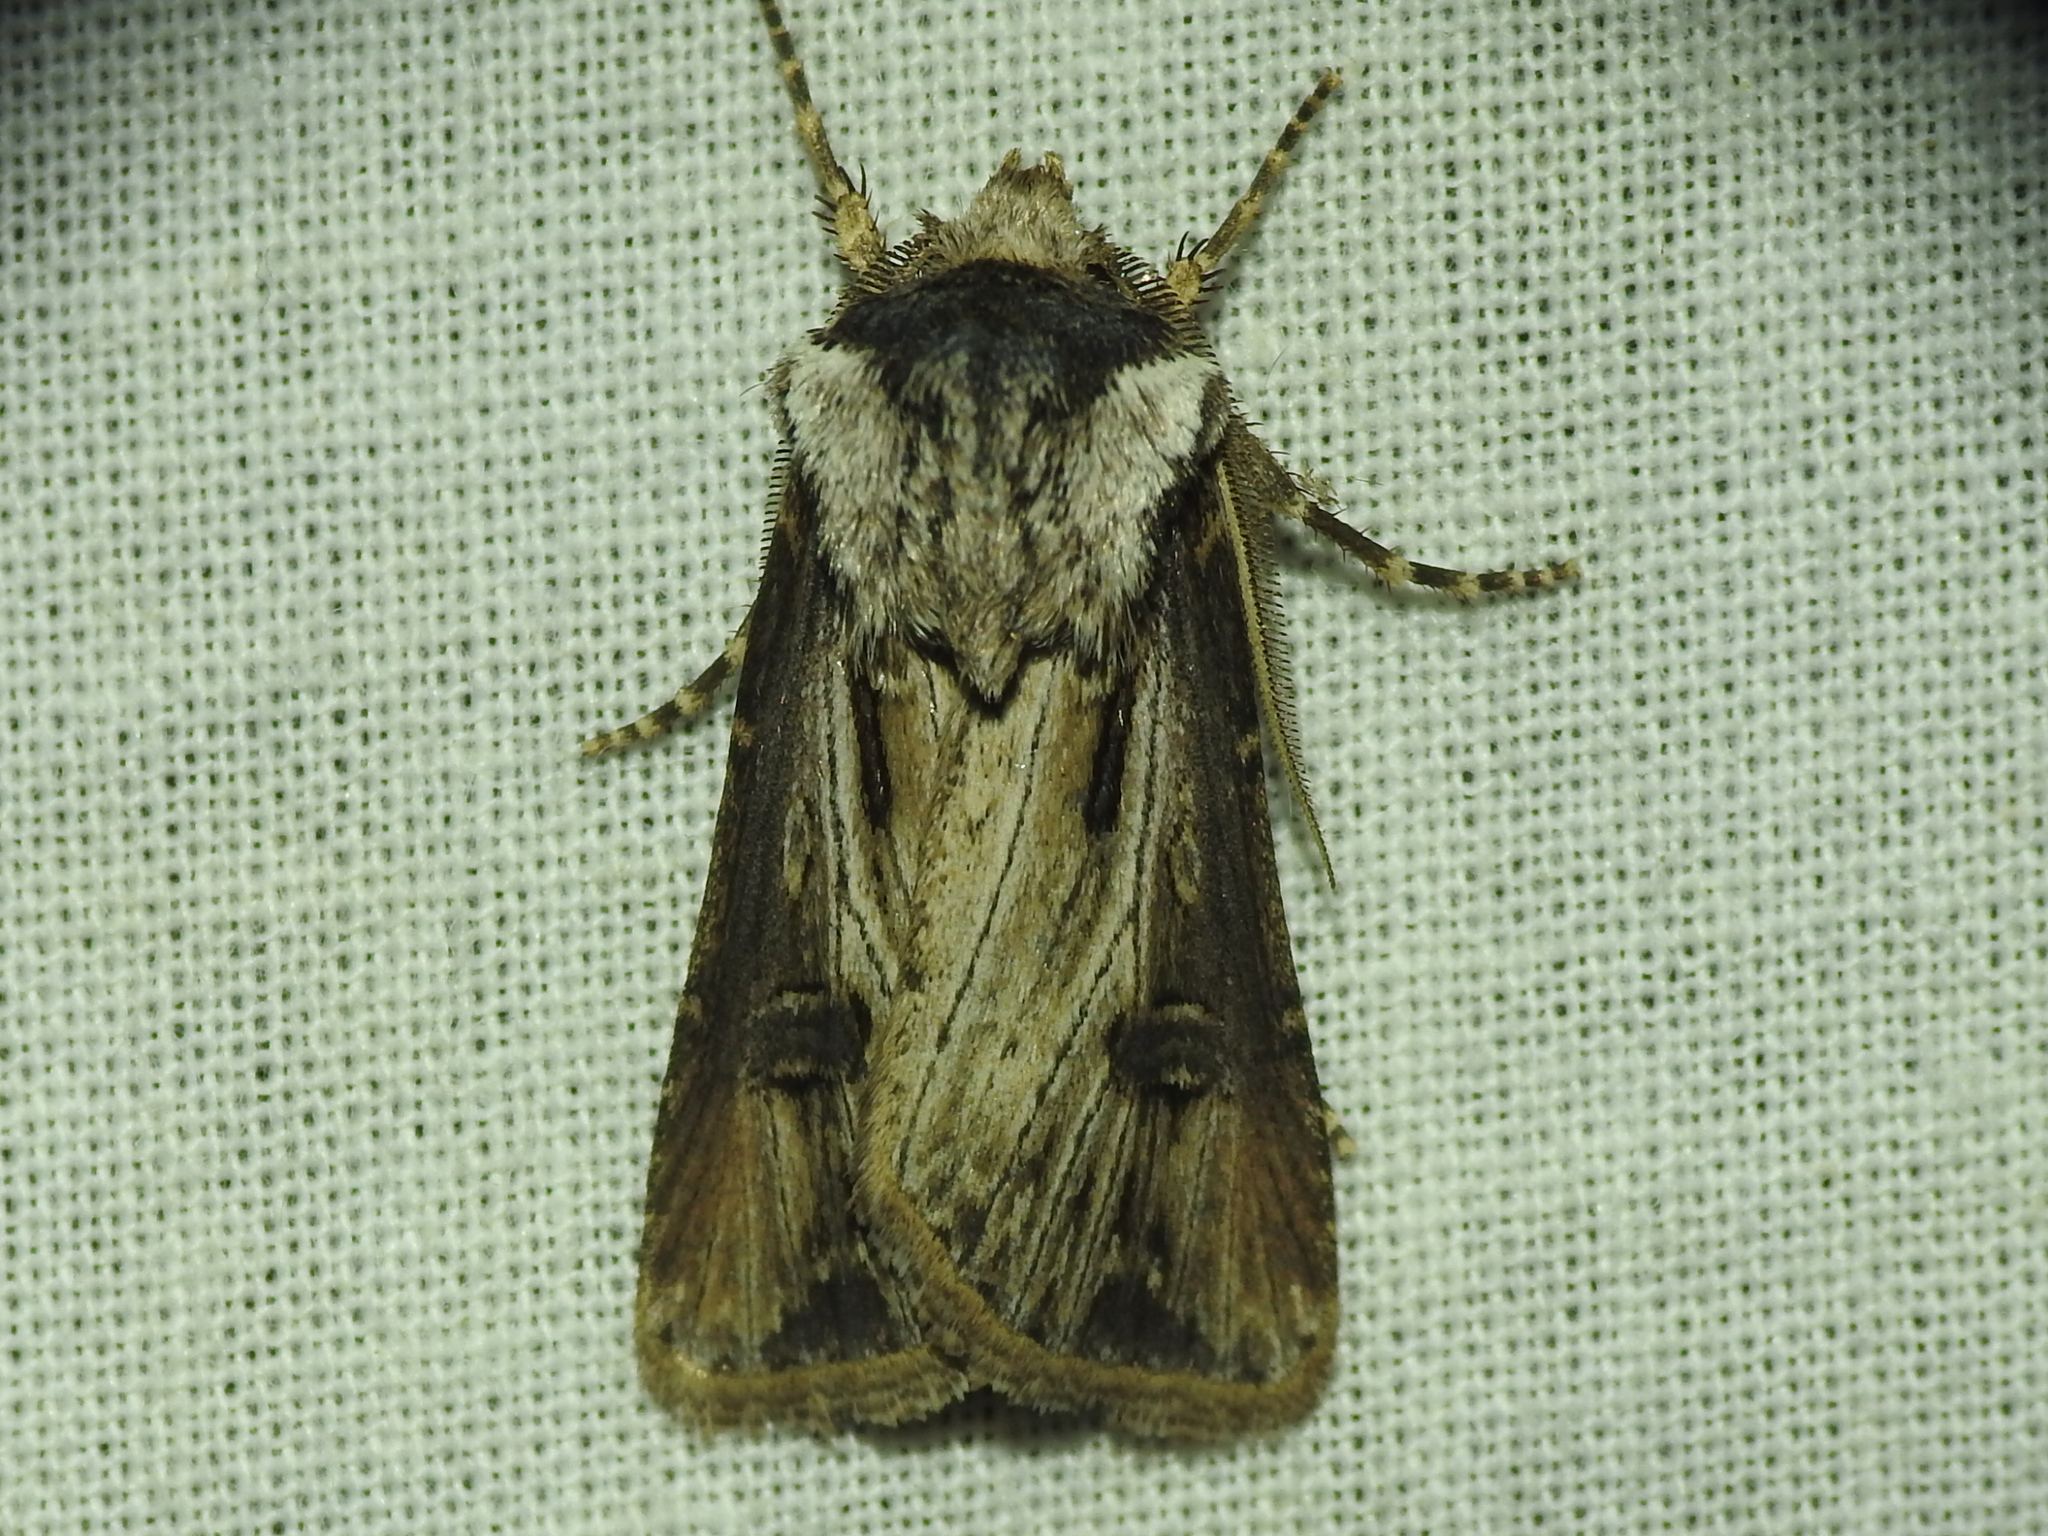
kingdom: Animalia
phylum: Arthropoda
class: Insecta
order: Lepidoptera
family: Noctuidae
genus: Agrotis
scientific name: Agrotis venerabilis
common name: Venerable dart
